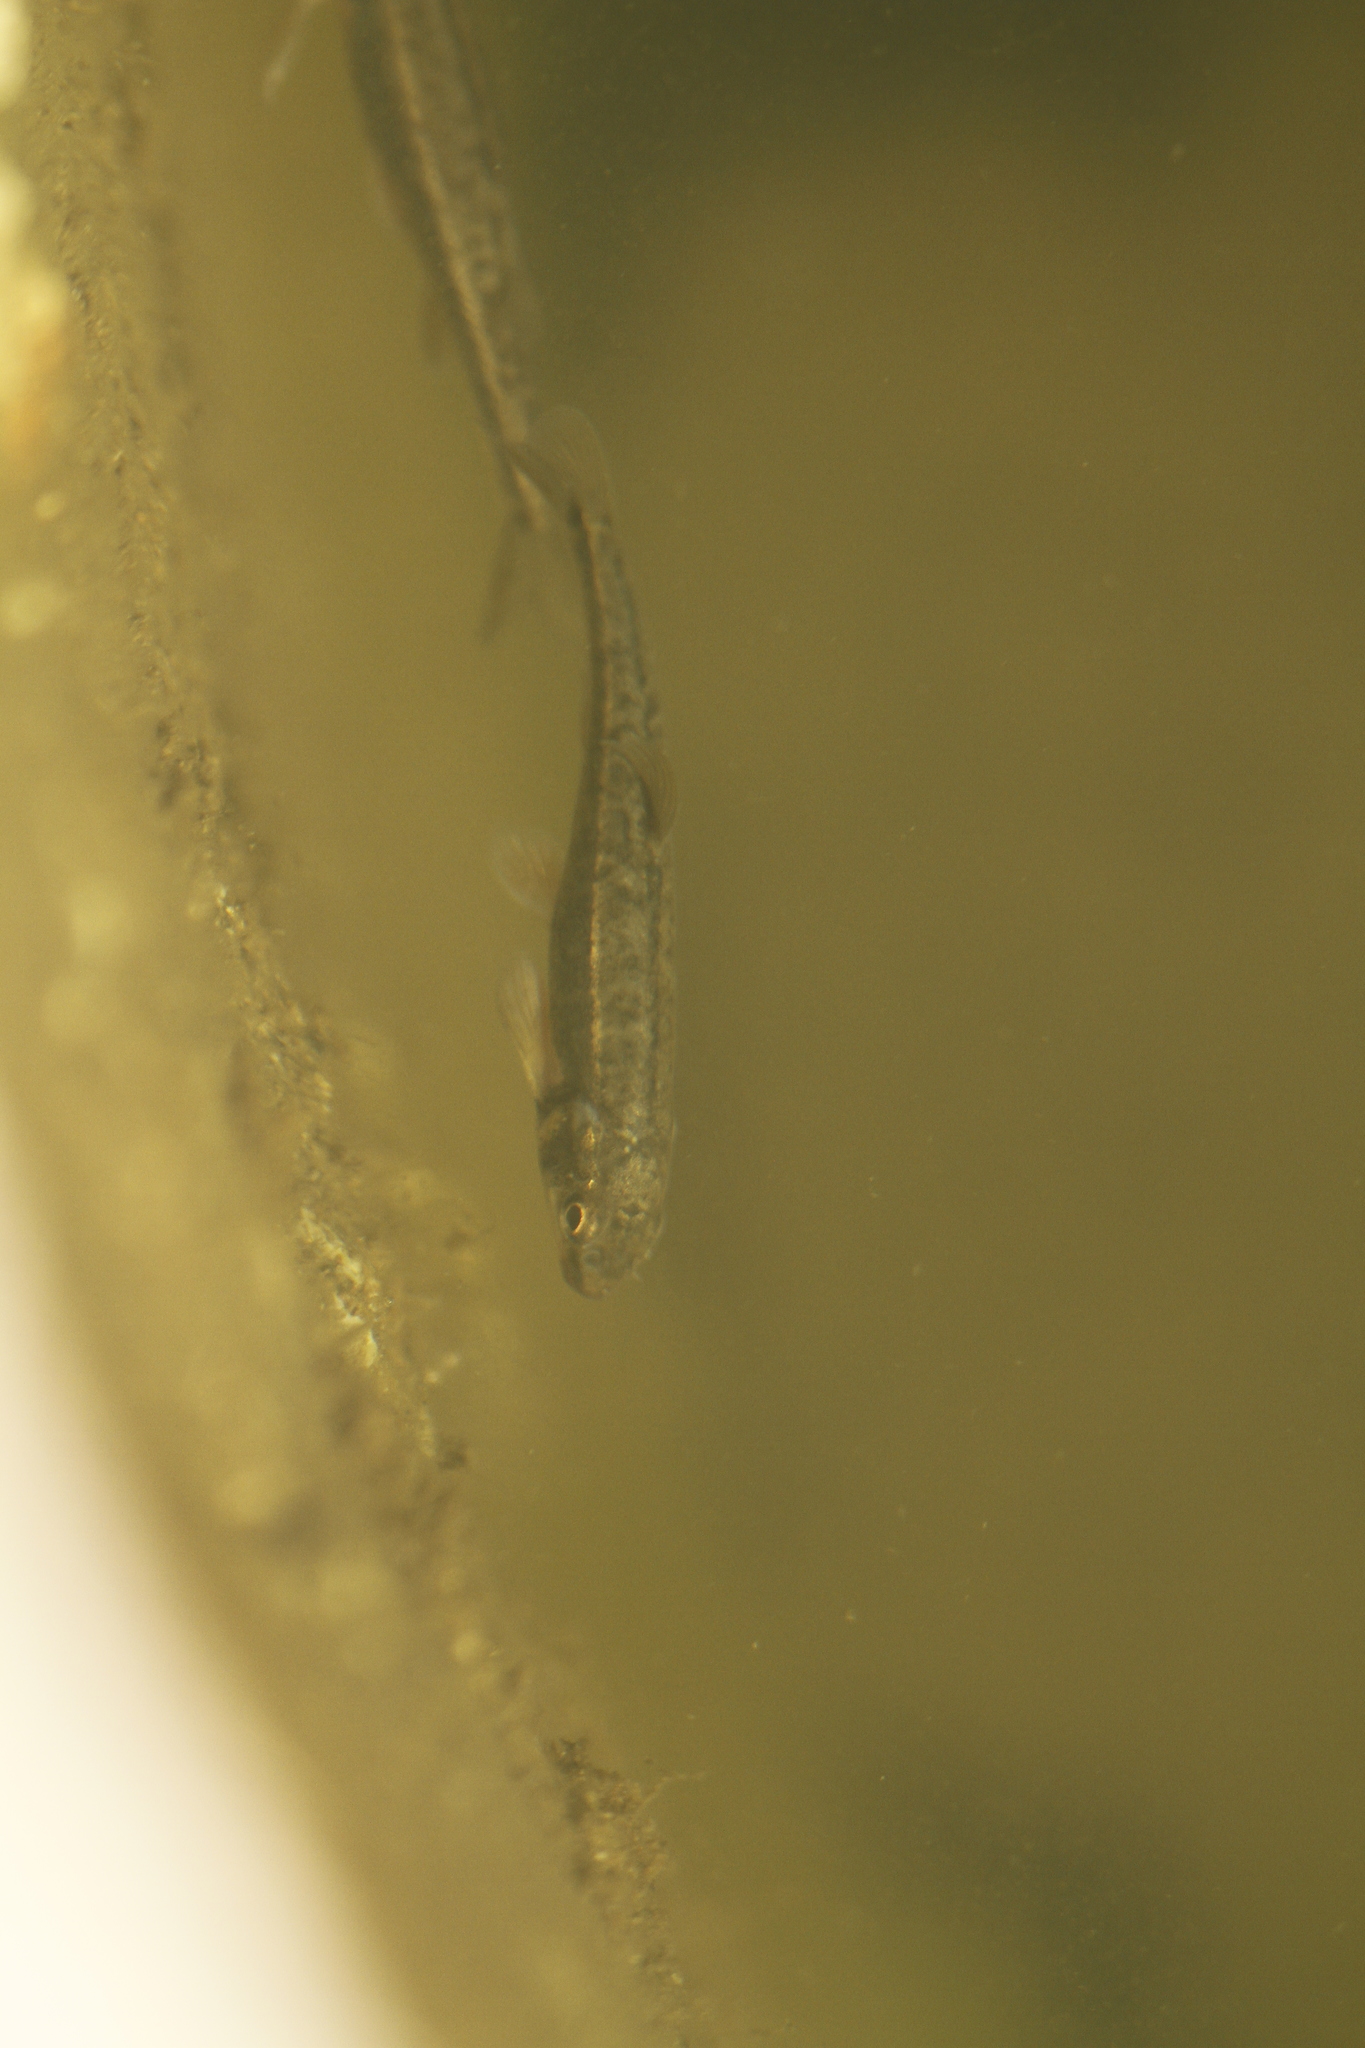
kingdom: Animalia
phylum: Chordata
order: Cypriniformes
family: Cyprinidae
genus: Phoxinus
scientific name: Phoxinus septimaniae
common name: Languedoc minnow
